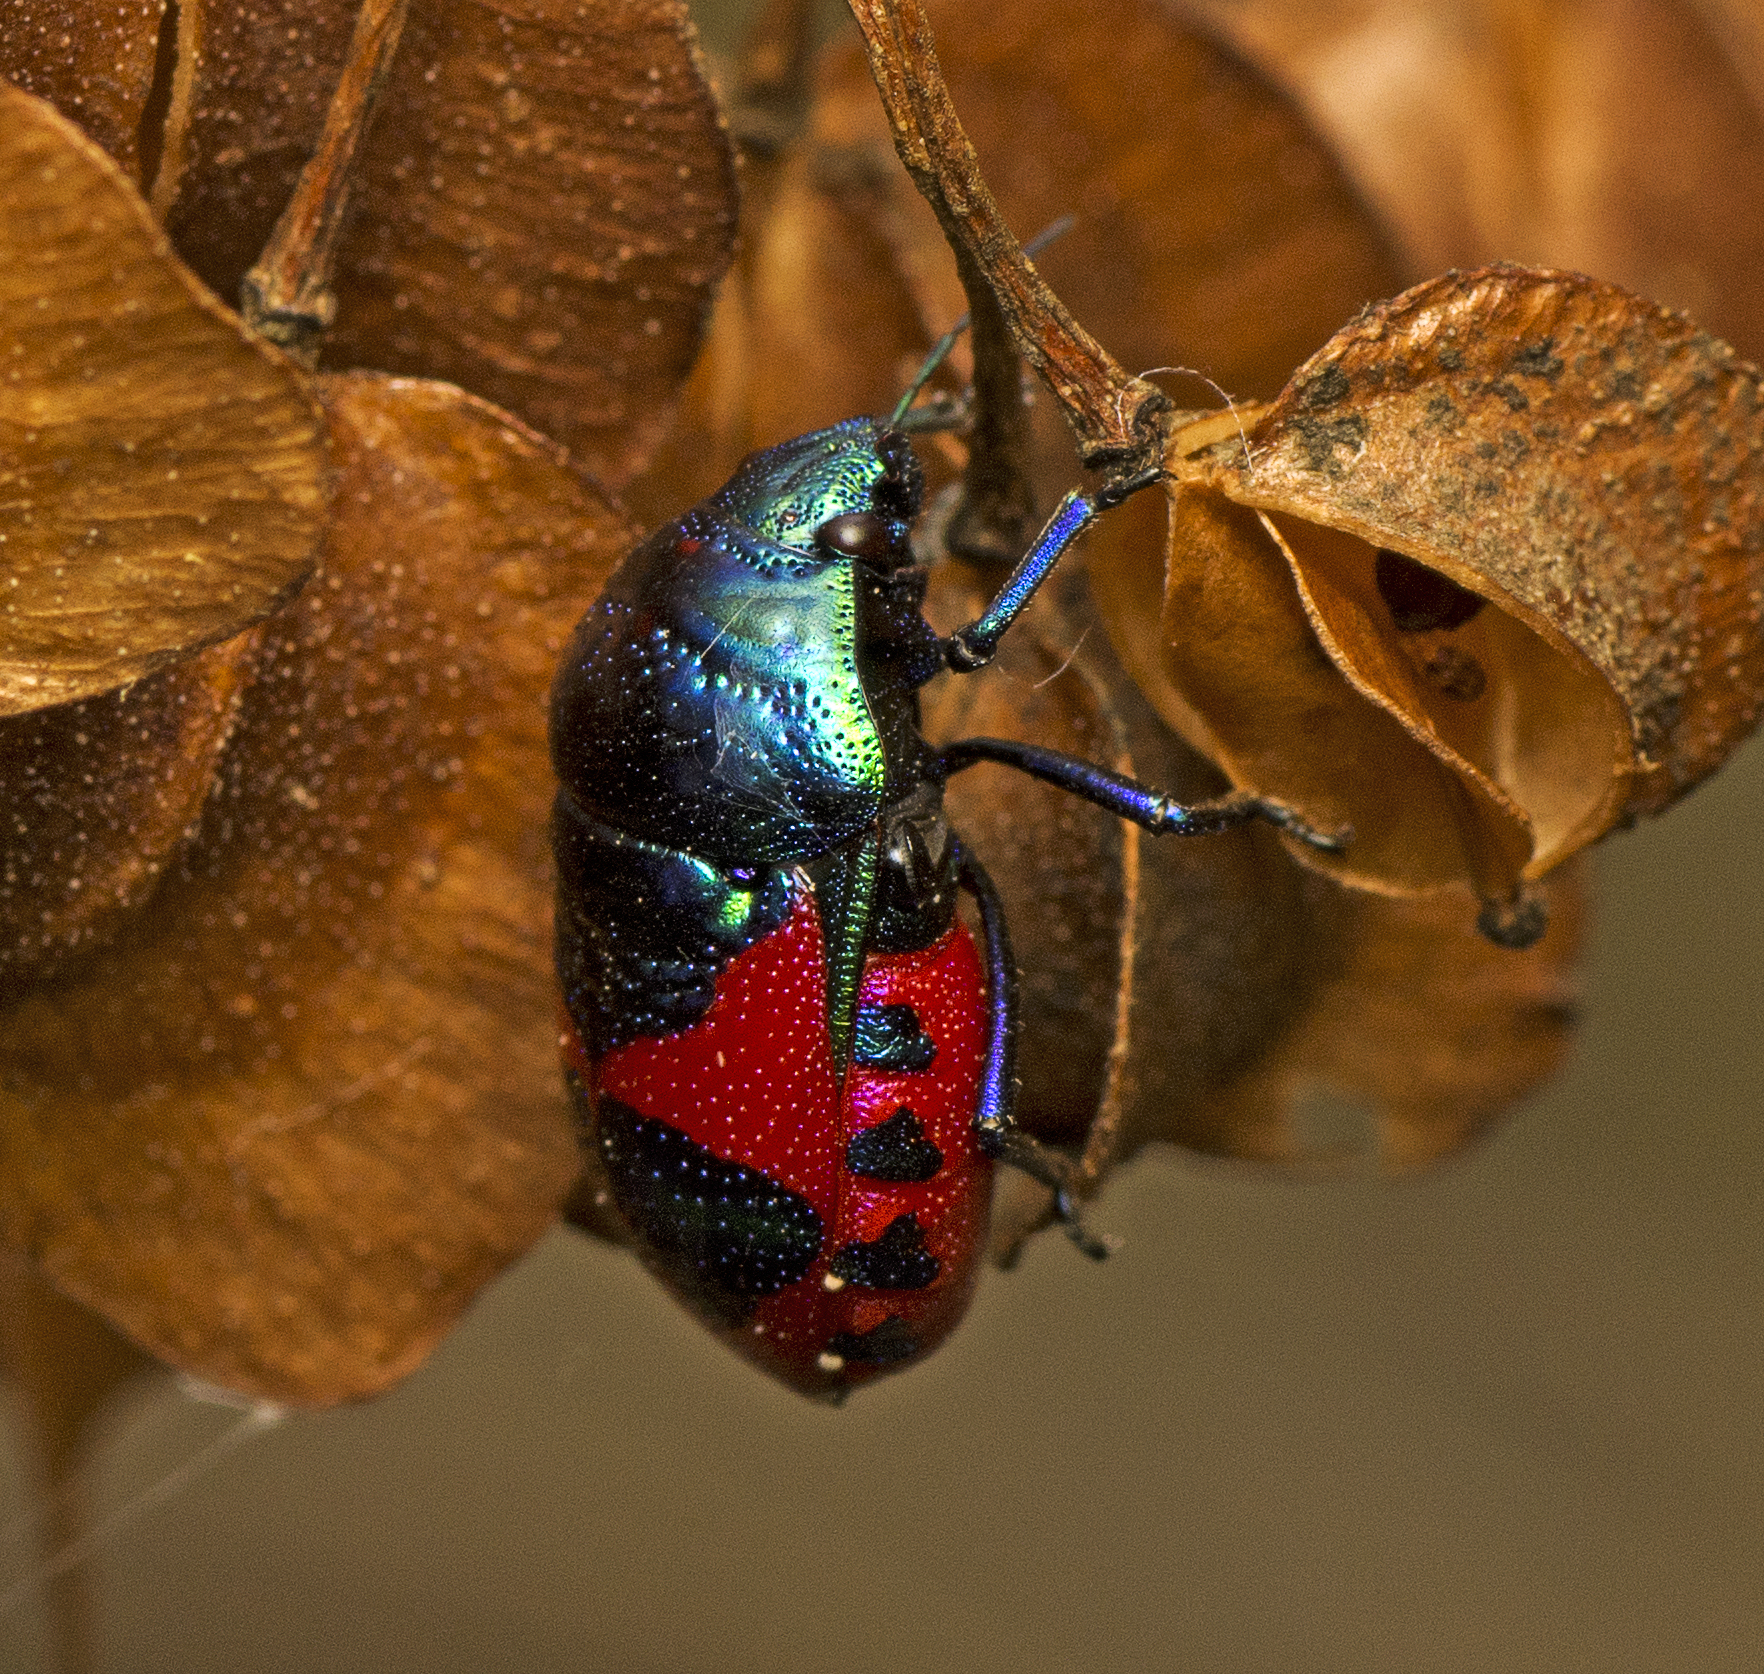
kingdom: Animalia
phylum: Arthropoda
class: Insecta
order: Hemiptera
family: Scutelleridae
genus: Choerocoris
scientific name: Choerocoris paganus
